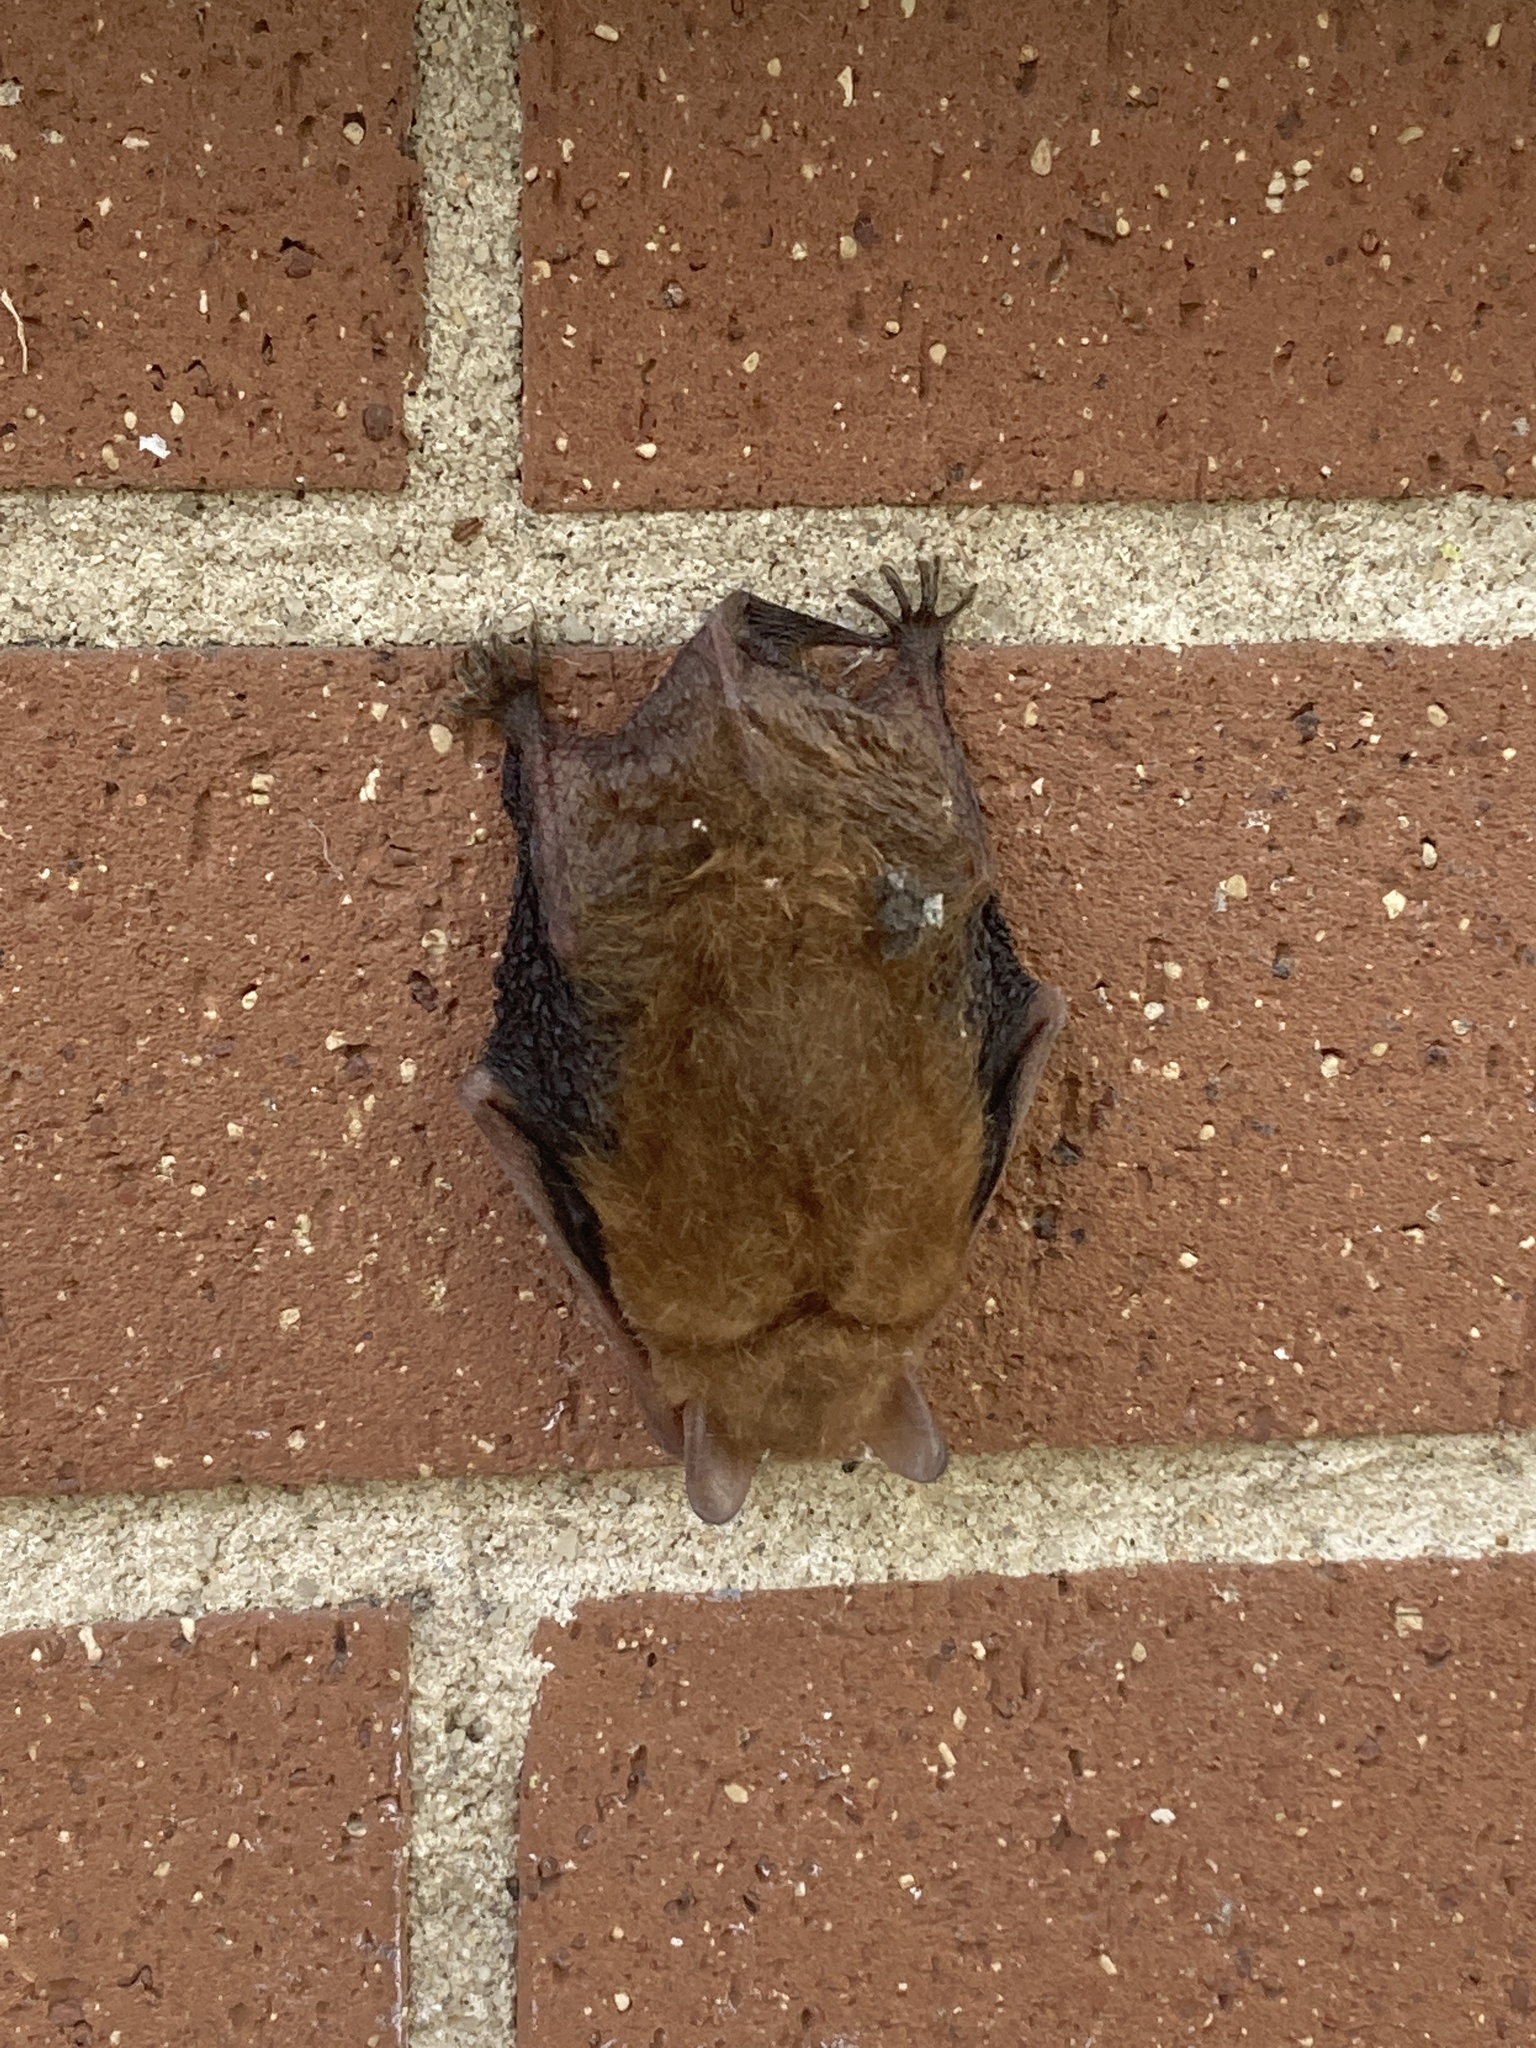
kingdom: Animalia
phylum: Chordata
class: Mammalia
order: Chiroptera
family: Vespertilionidae
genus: Perimyotis
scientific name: Perimyotis subflavus
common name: Eastern pipistrelle
